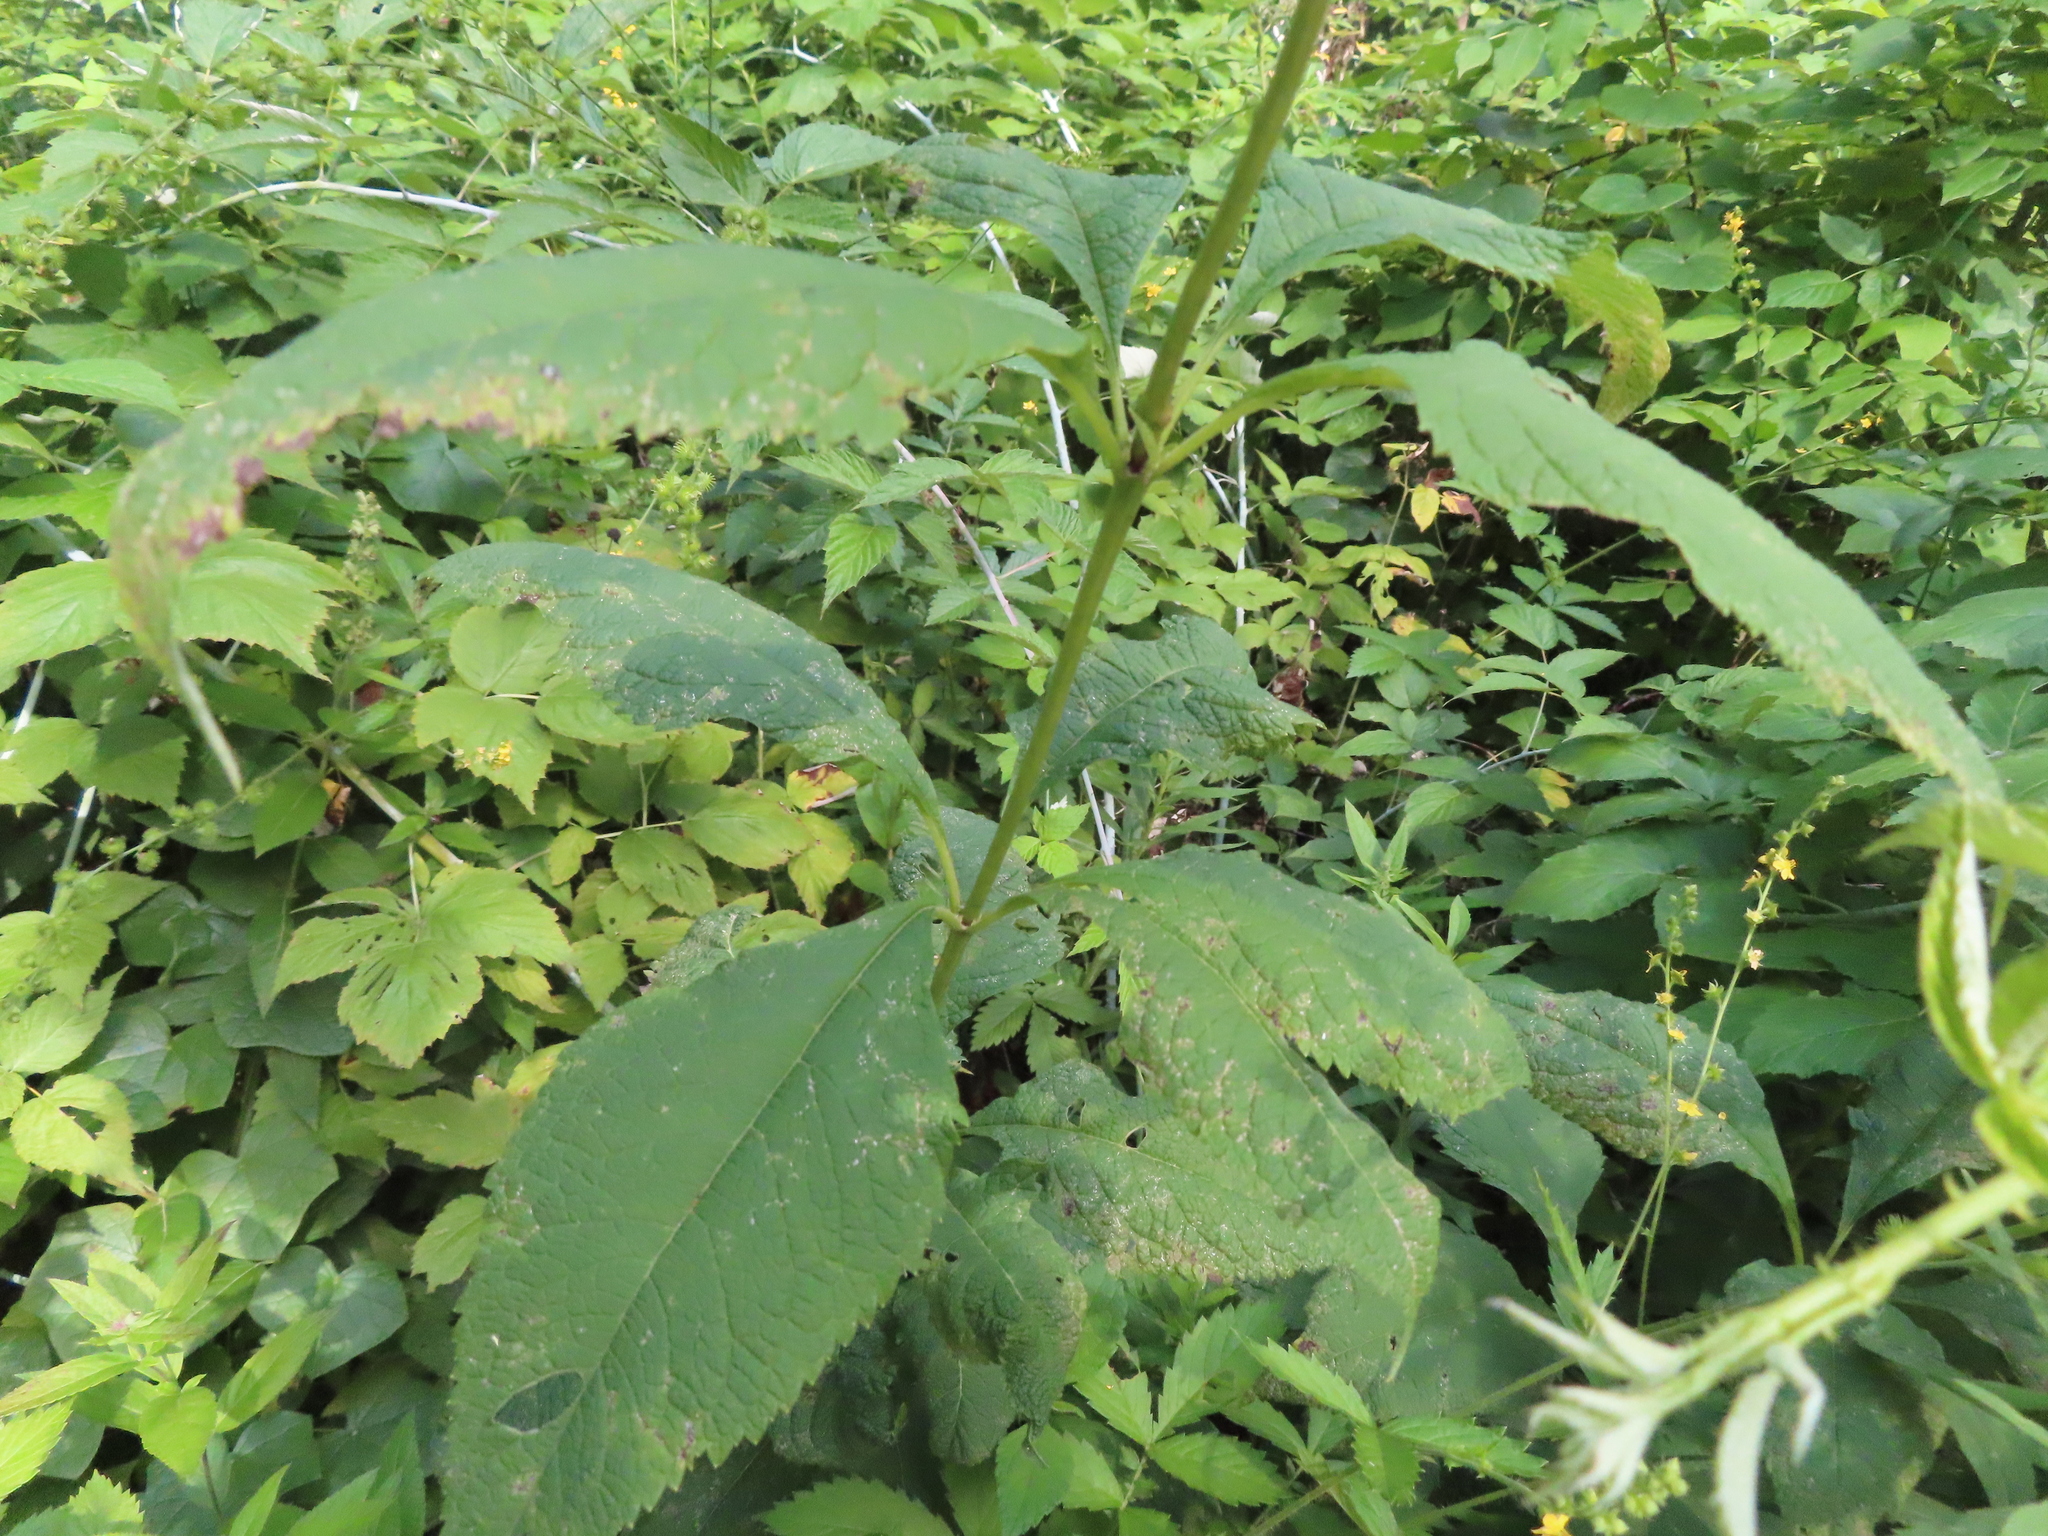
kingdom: Plantae
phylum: Tracheophyta
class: Magnoliopsida
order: Asterales
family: Asteraceae
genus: Eutrochium
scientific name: Eutrochium purpureum
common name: Gravelroot
